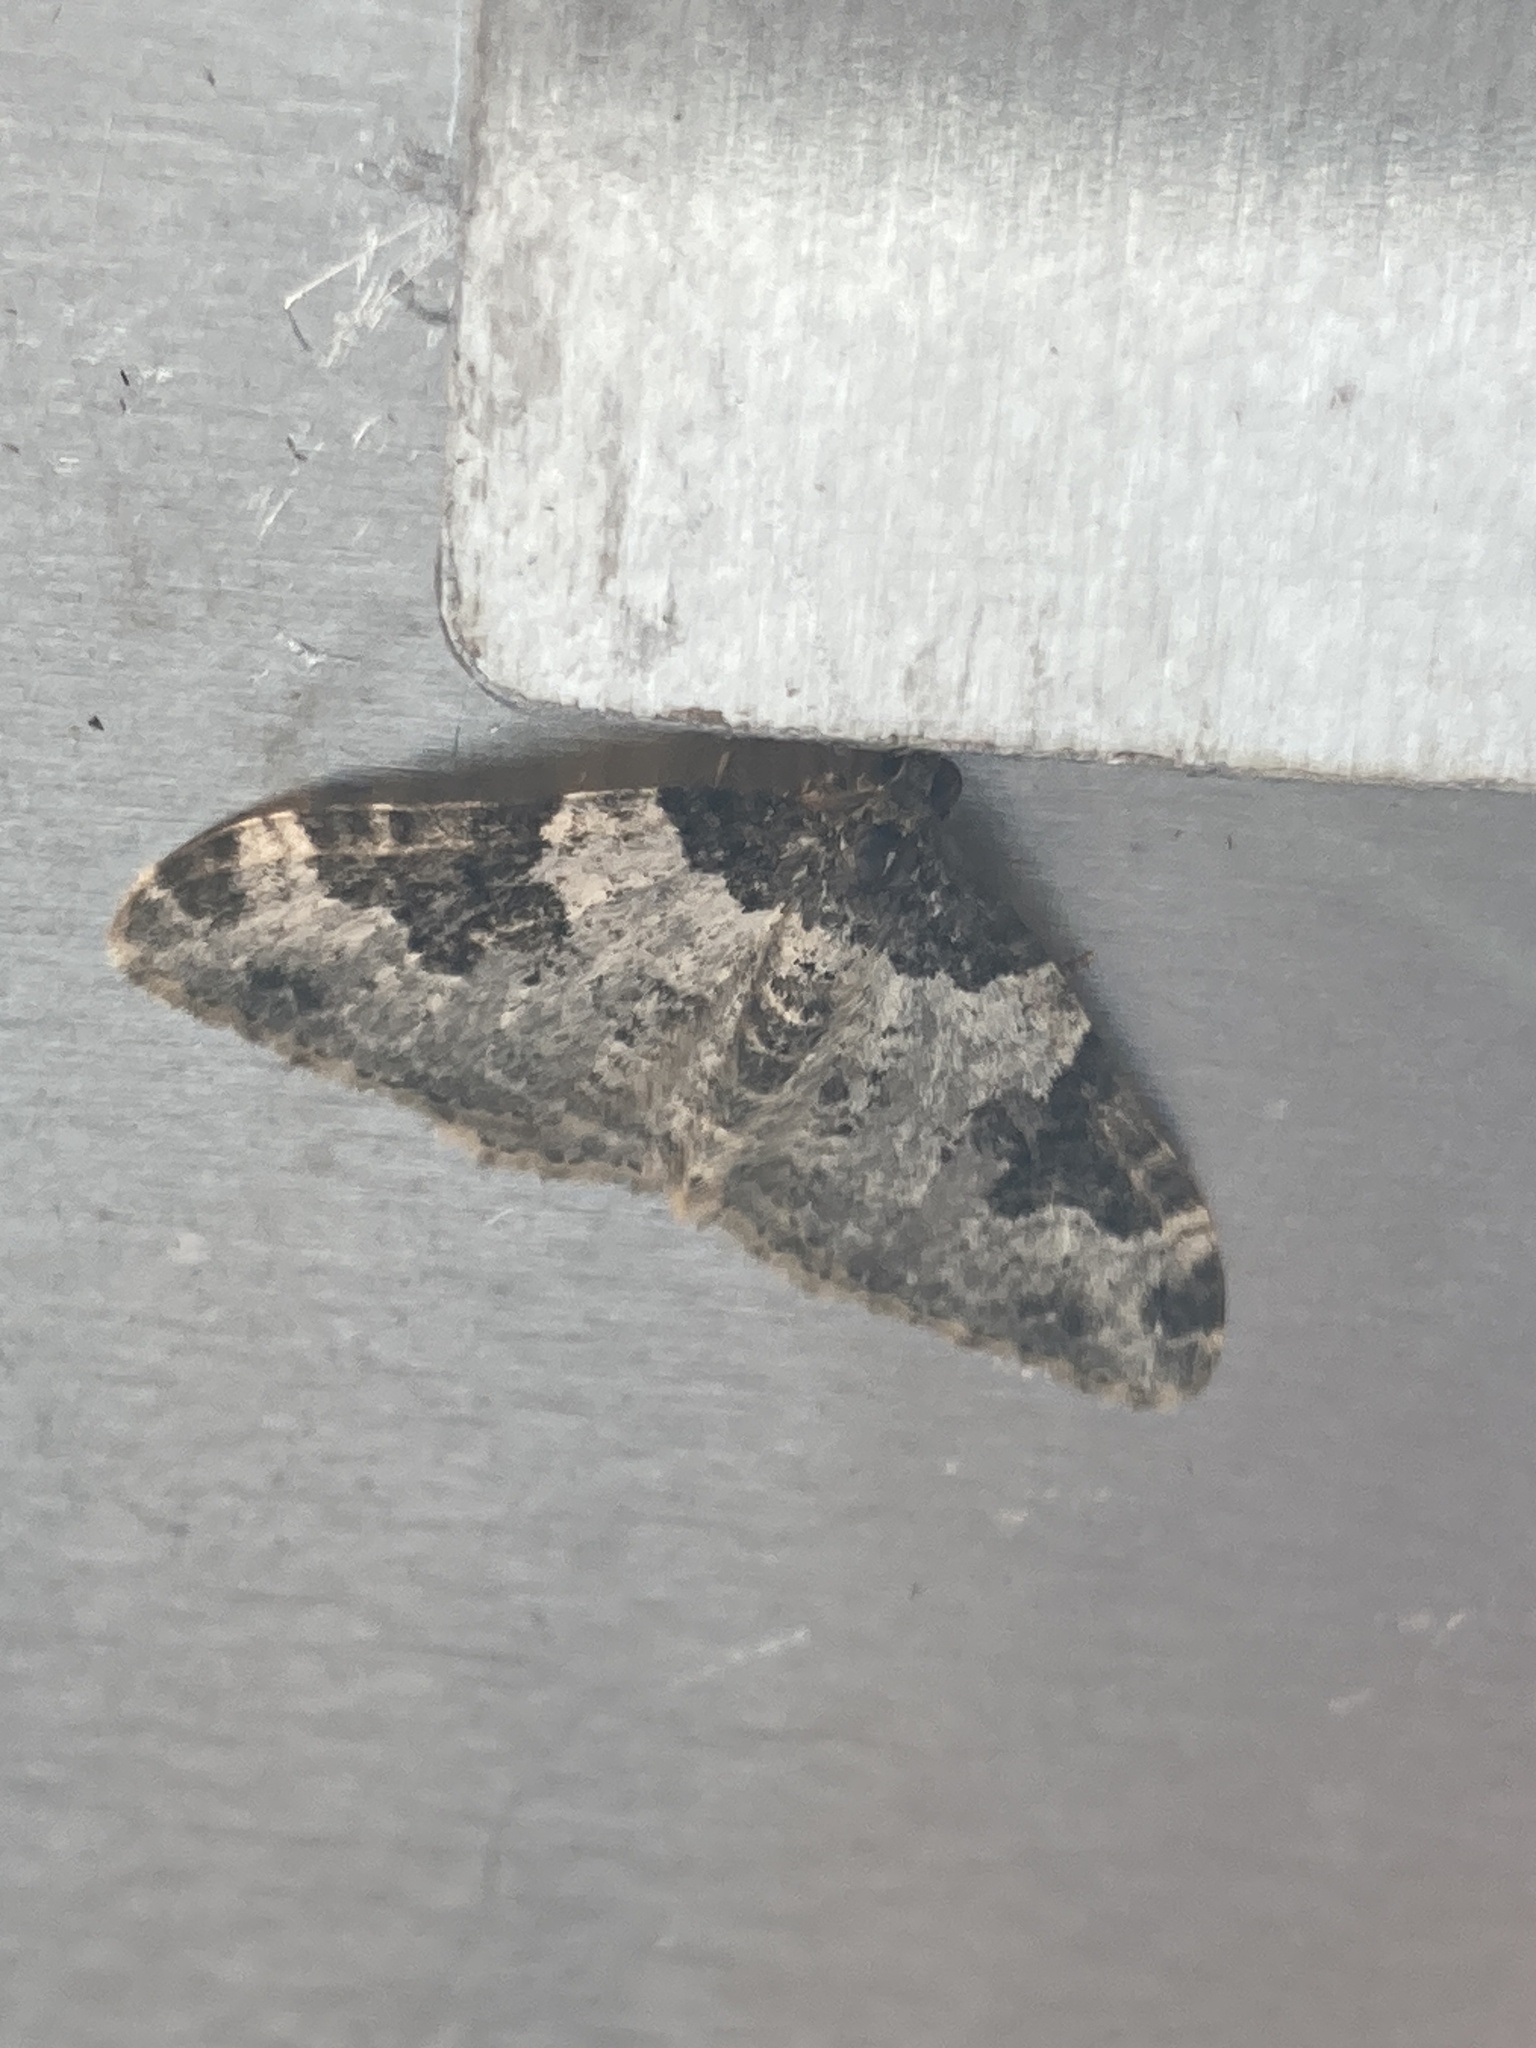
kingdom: Animalia
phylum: Arthropoda
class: Insecta
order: Lepidoptera
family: Geometridae
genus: Xanthorhoe
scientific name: Xanthorhoe fluctuata
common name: Garden carpet
